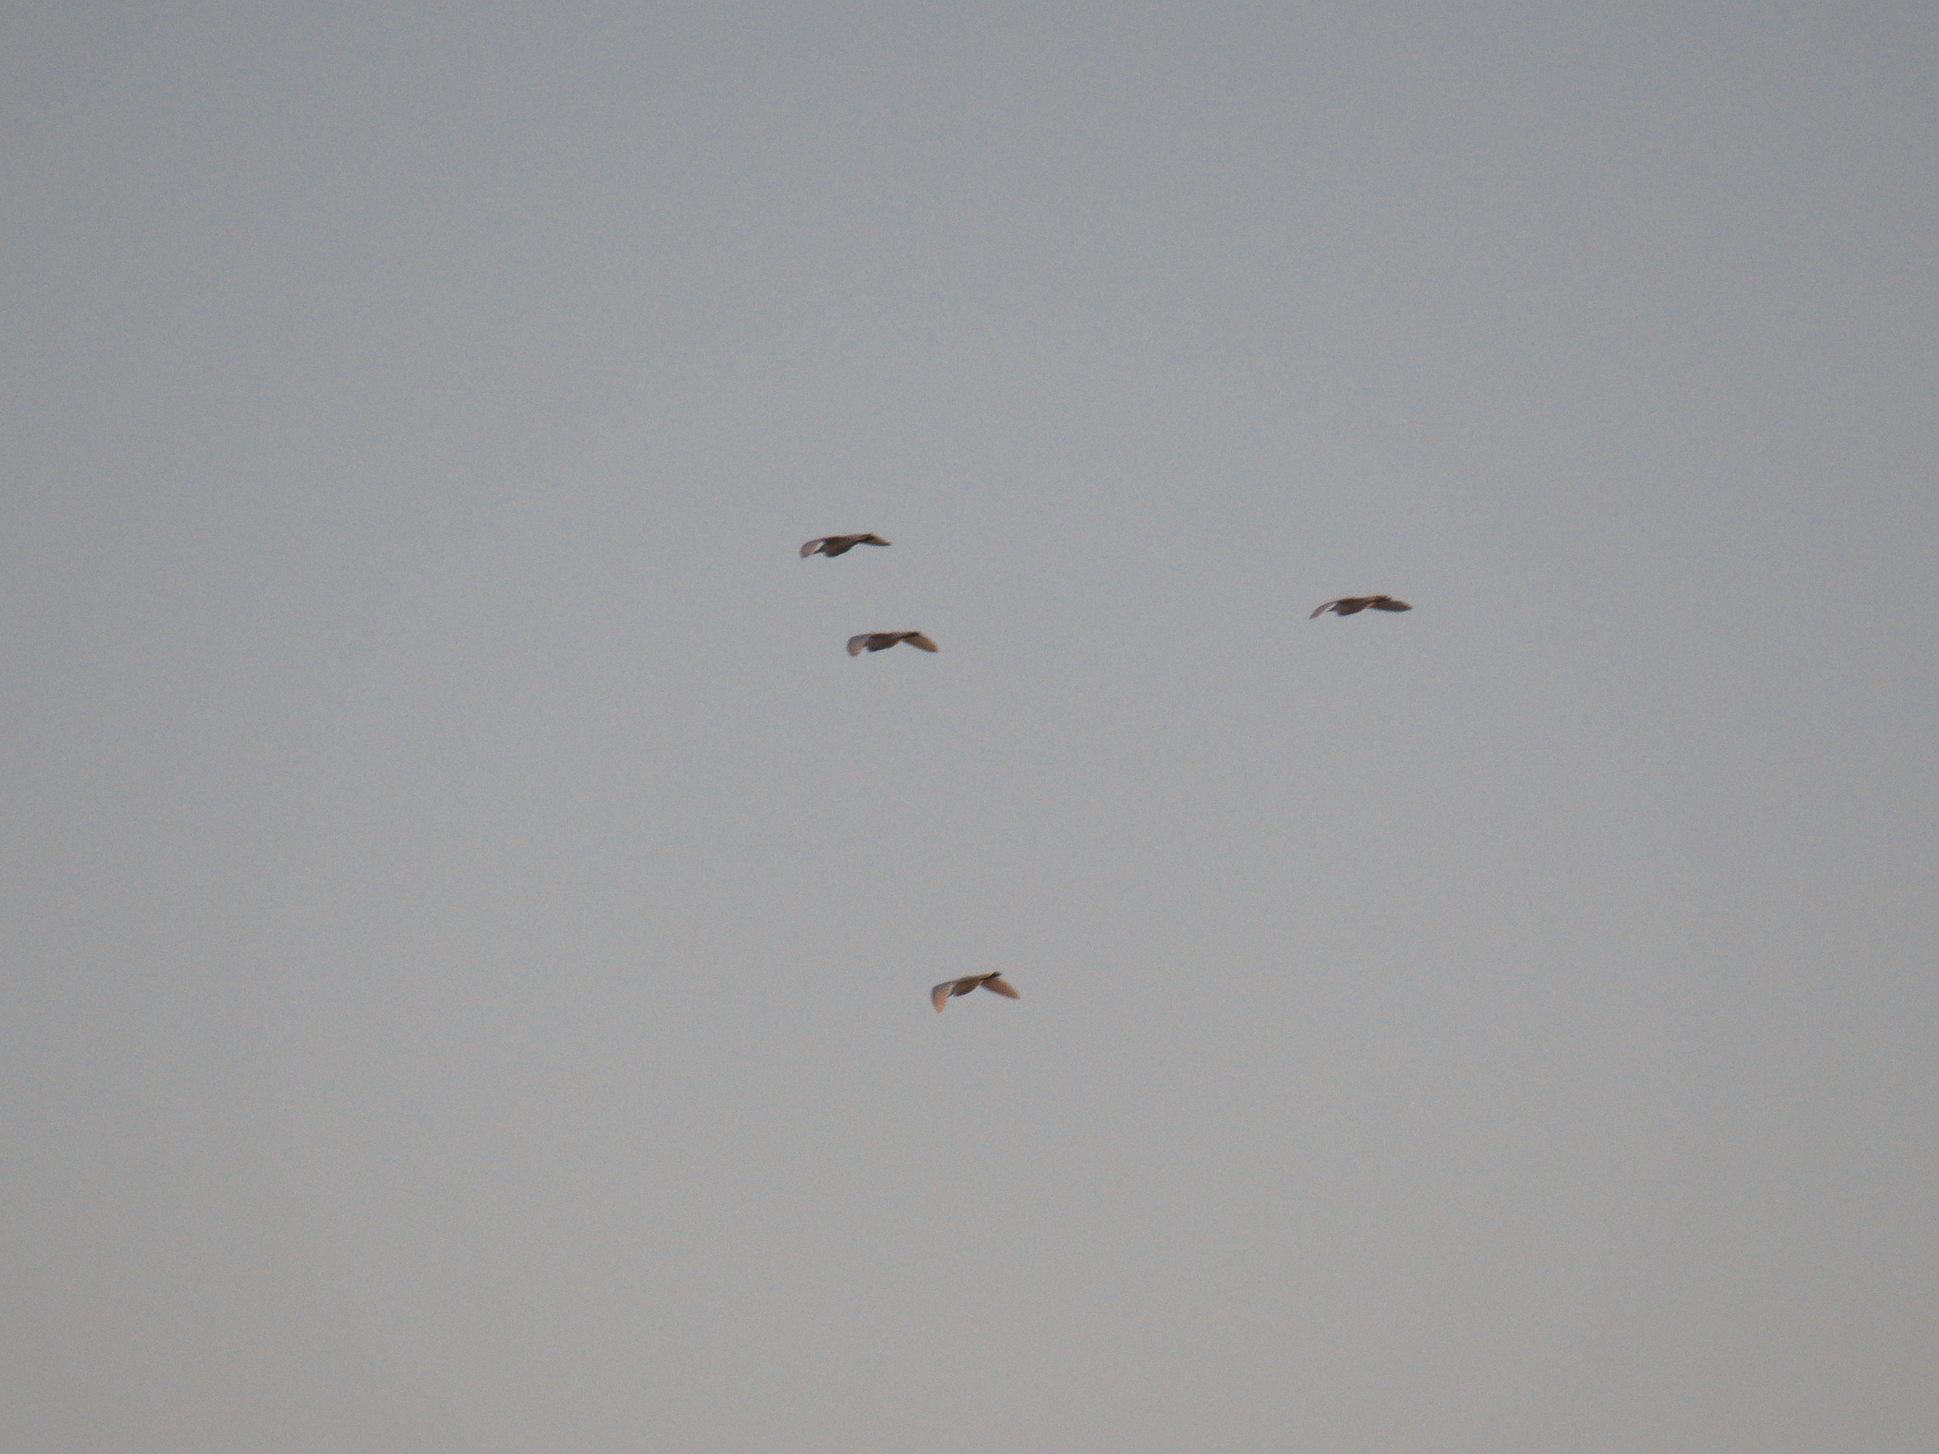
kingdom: Animalia
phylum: Chordata
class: Aves
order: Pelecaniformes
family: Ardeidae
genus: Bubulcus
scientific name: Bubulcus ibis
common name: Cattle egret
